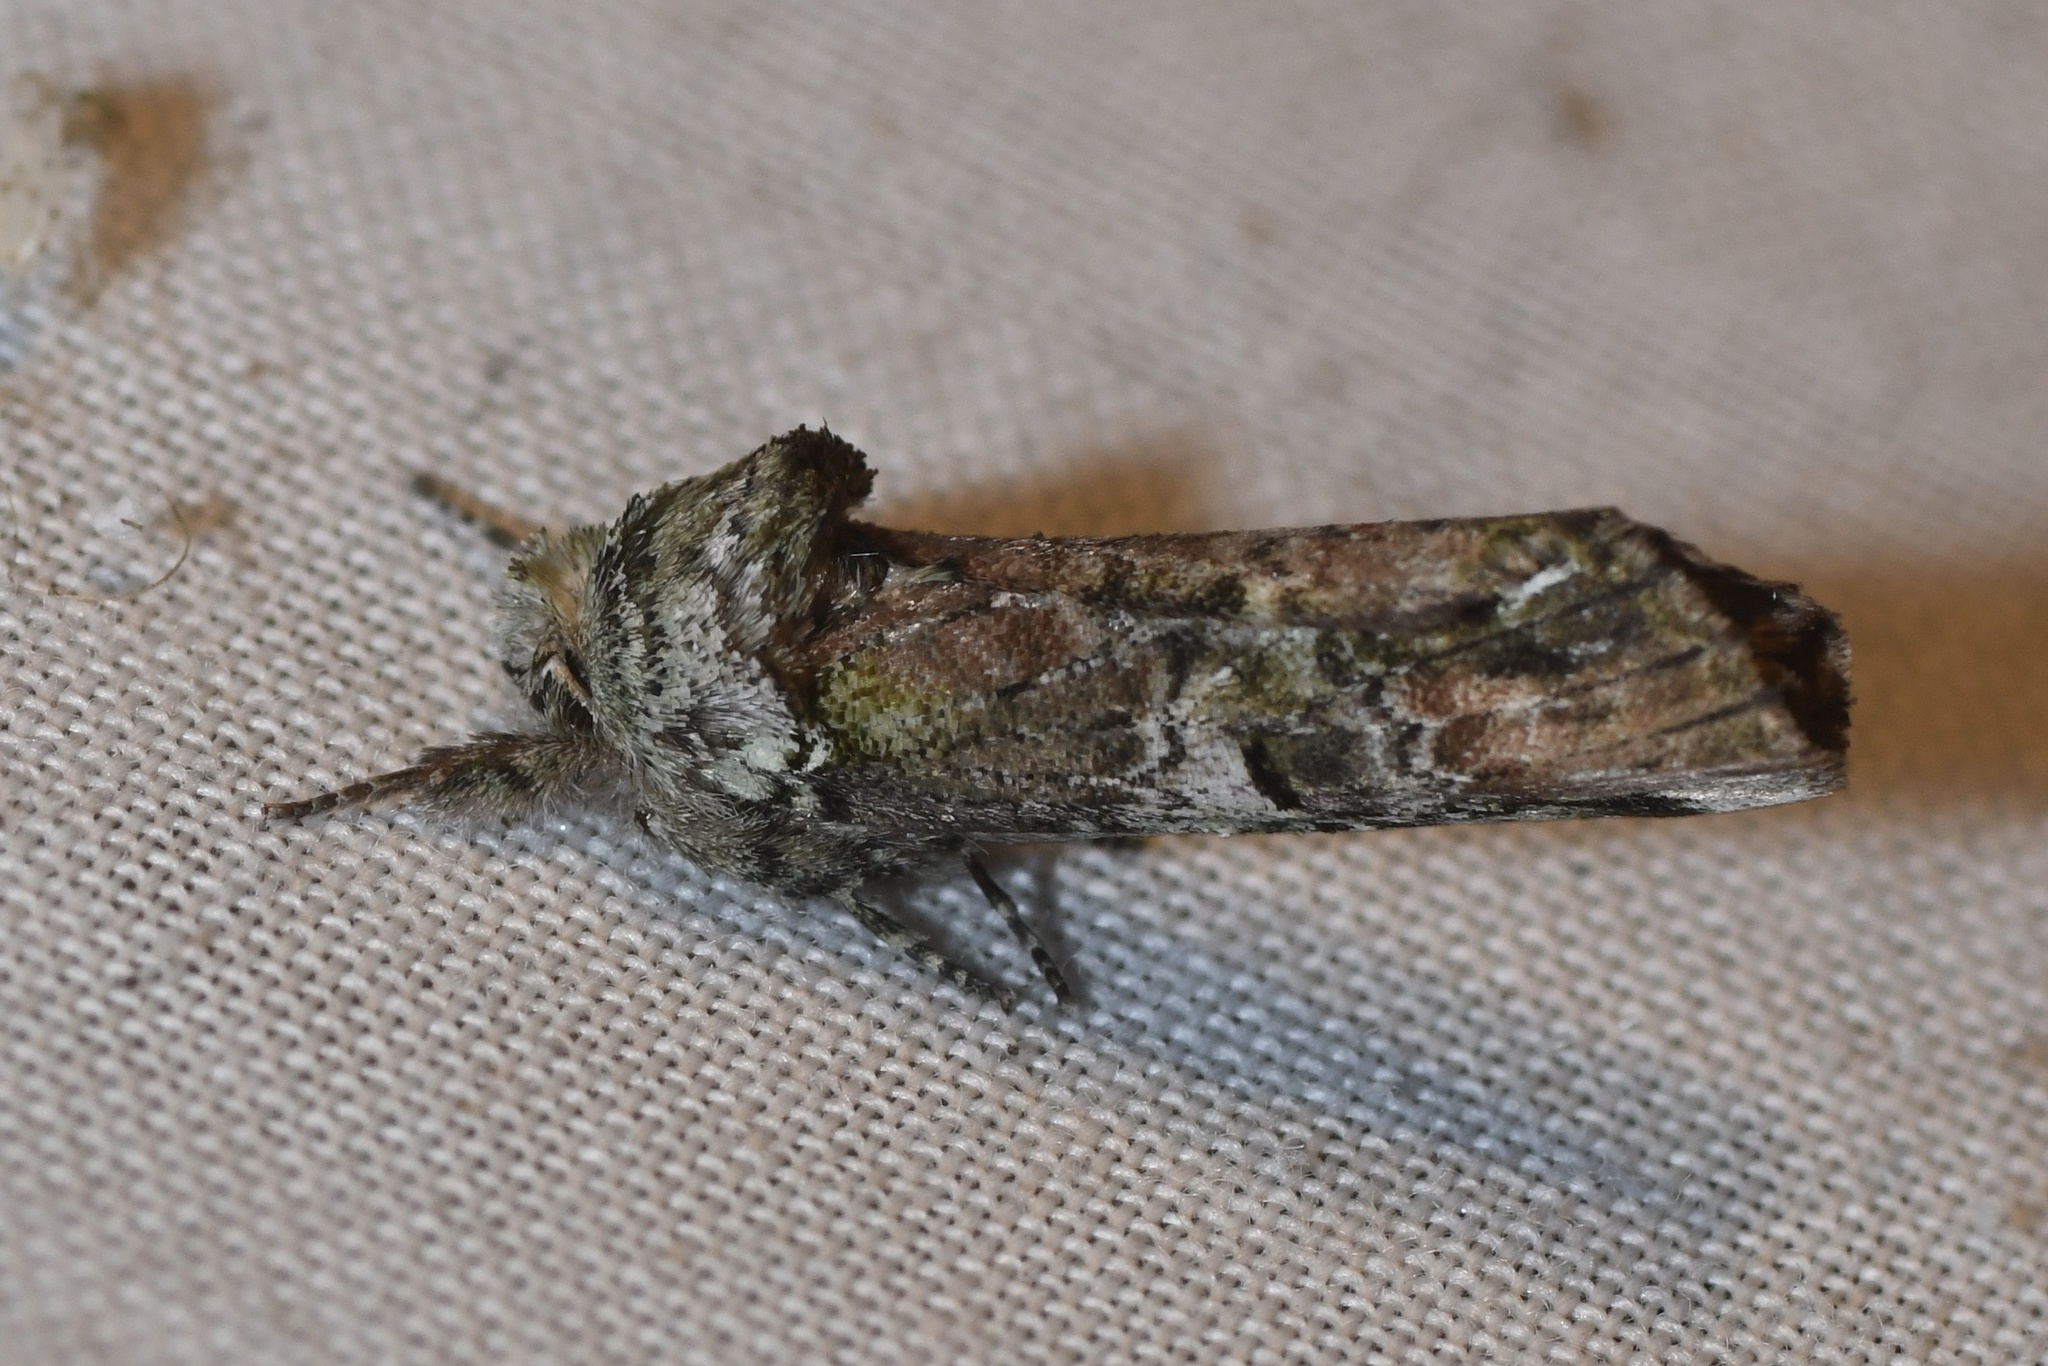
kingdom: Animalia
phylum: Arthropoda
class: Insecta
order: Lepidoptera
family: Notodontidae
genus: Schizura
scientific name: Schizura
